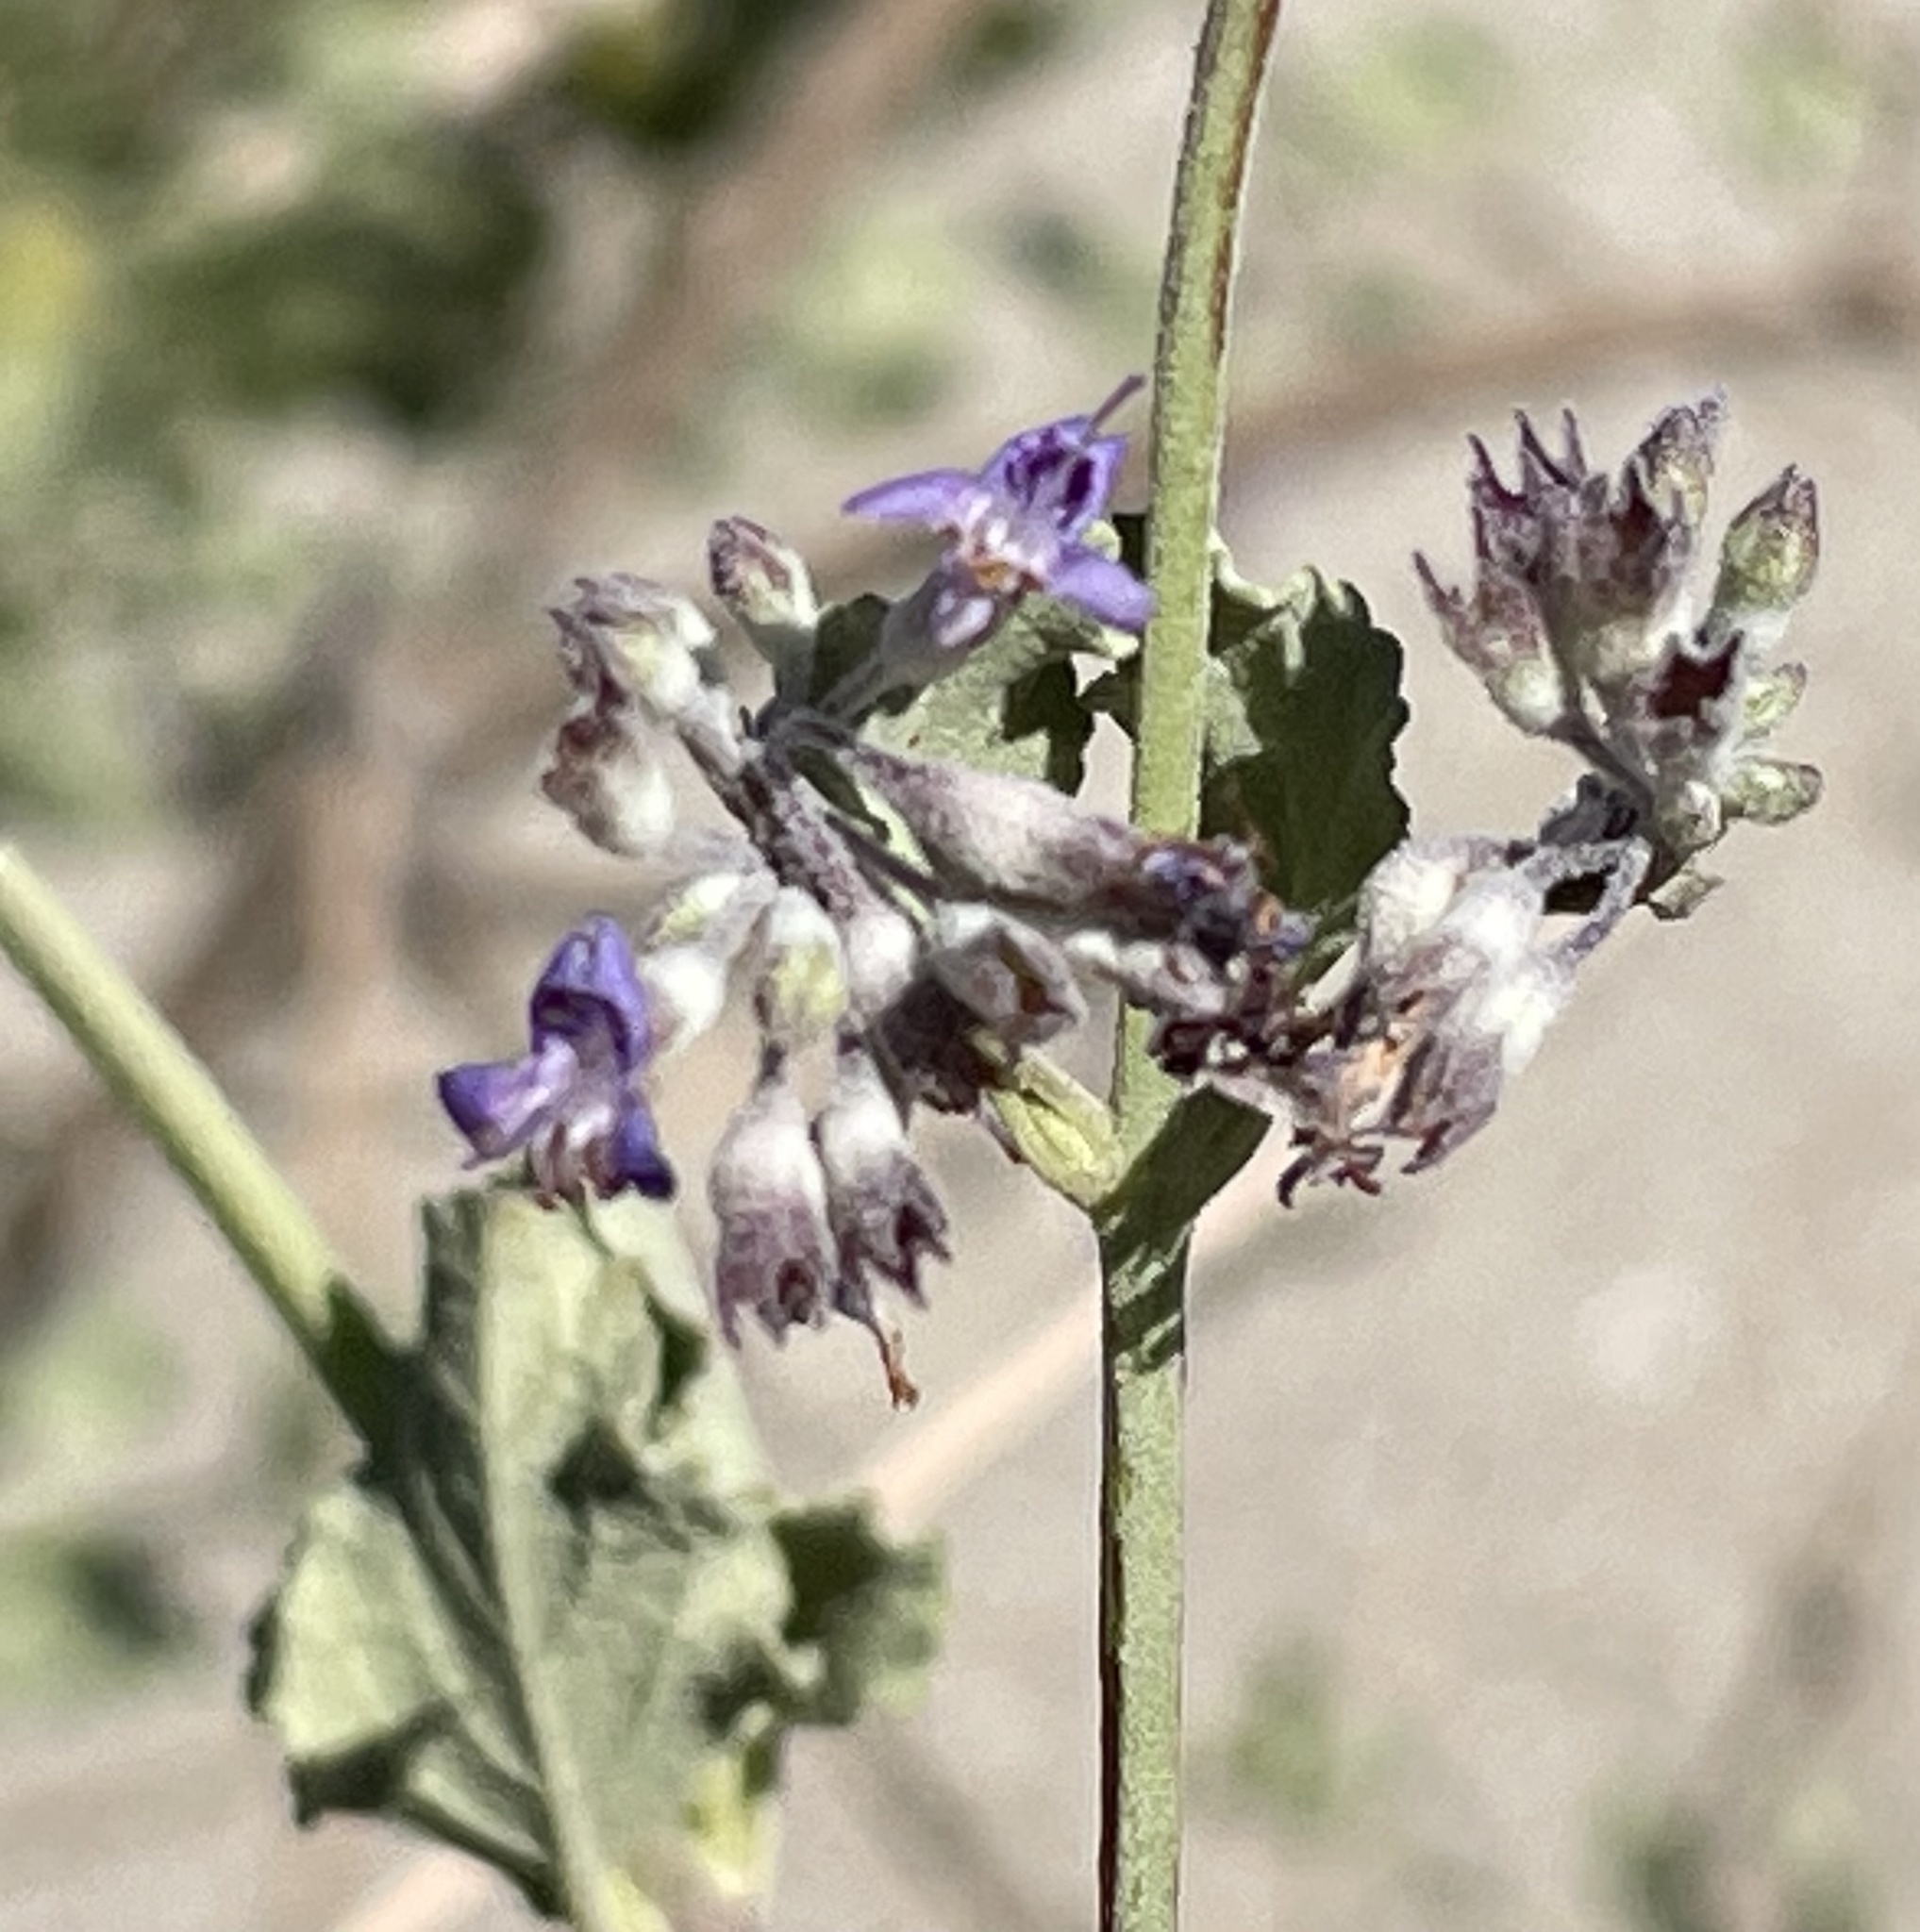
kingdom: Plantae
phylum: Tracheophyta
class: Magnoliopsida
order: Lamiales
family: Lamiaceae
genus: Condea
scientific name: Condea emoryi
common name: Chia
